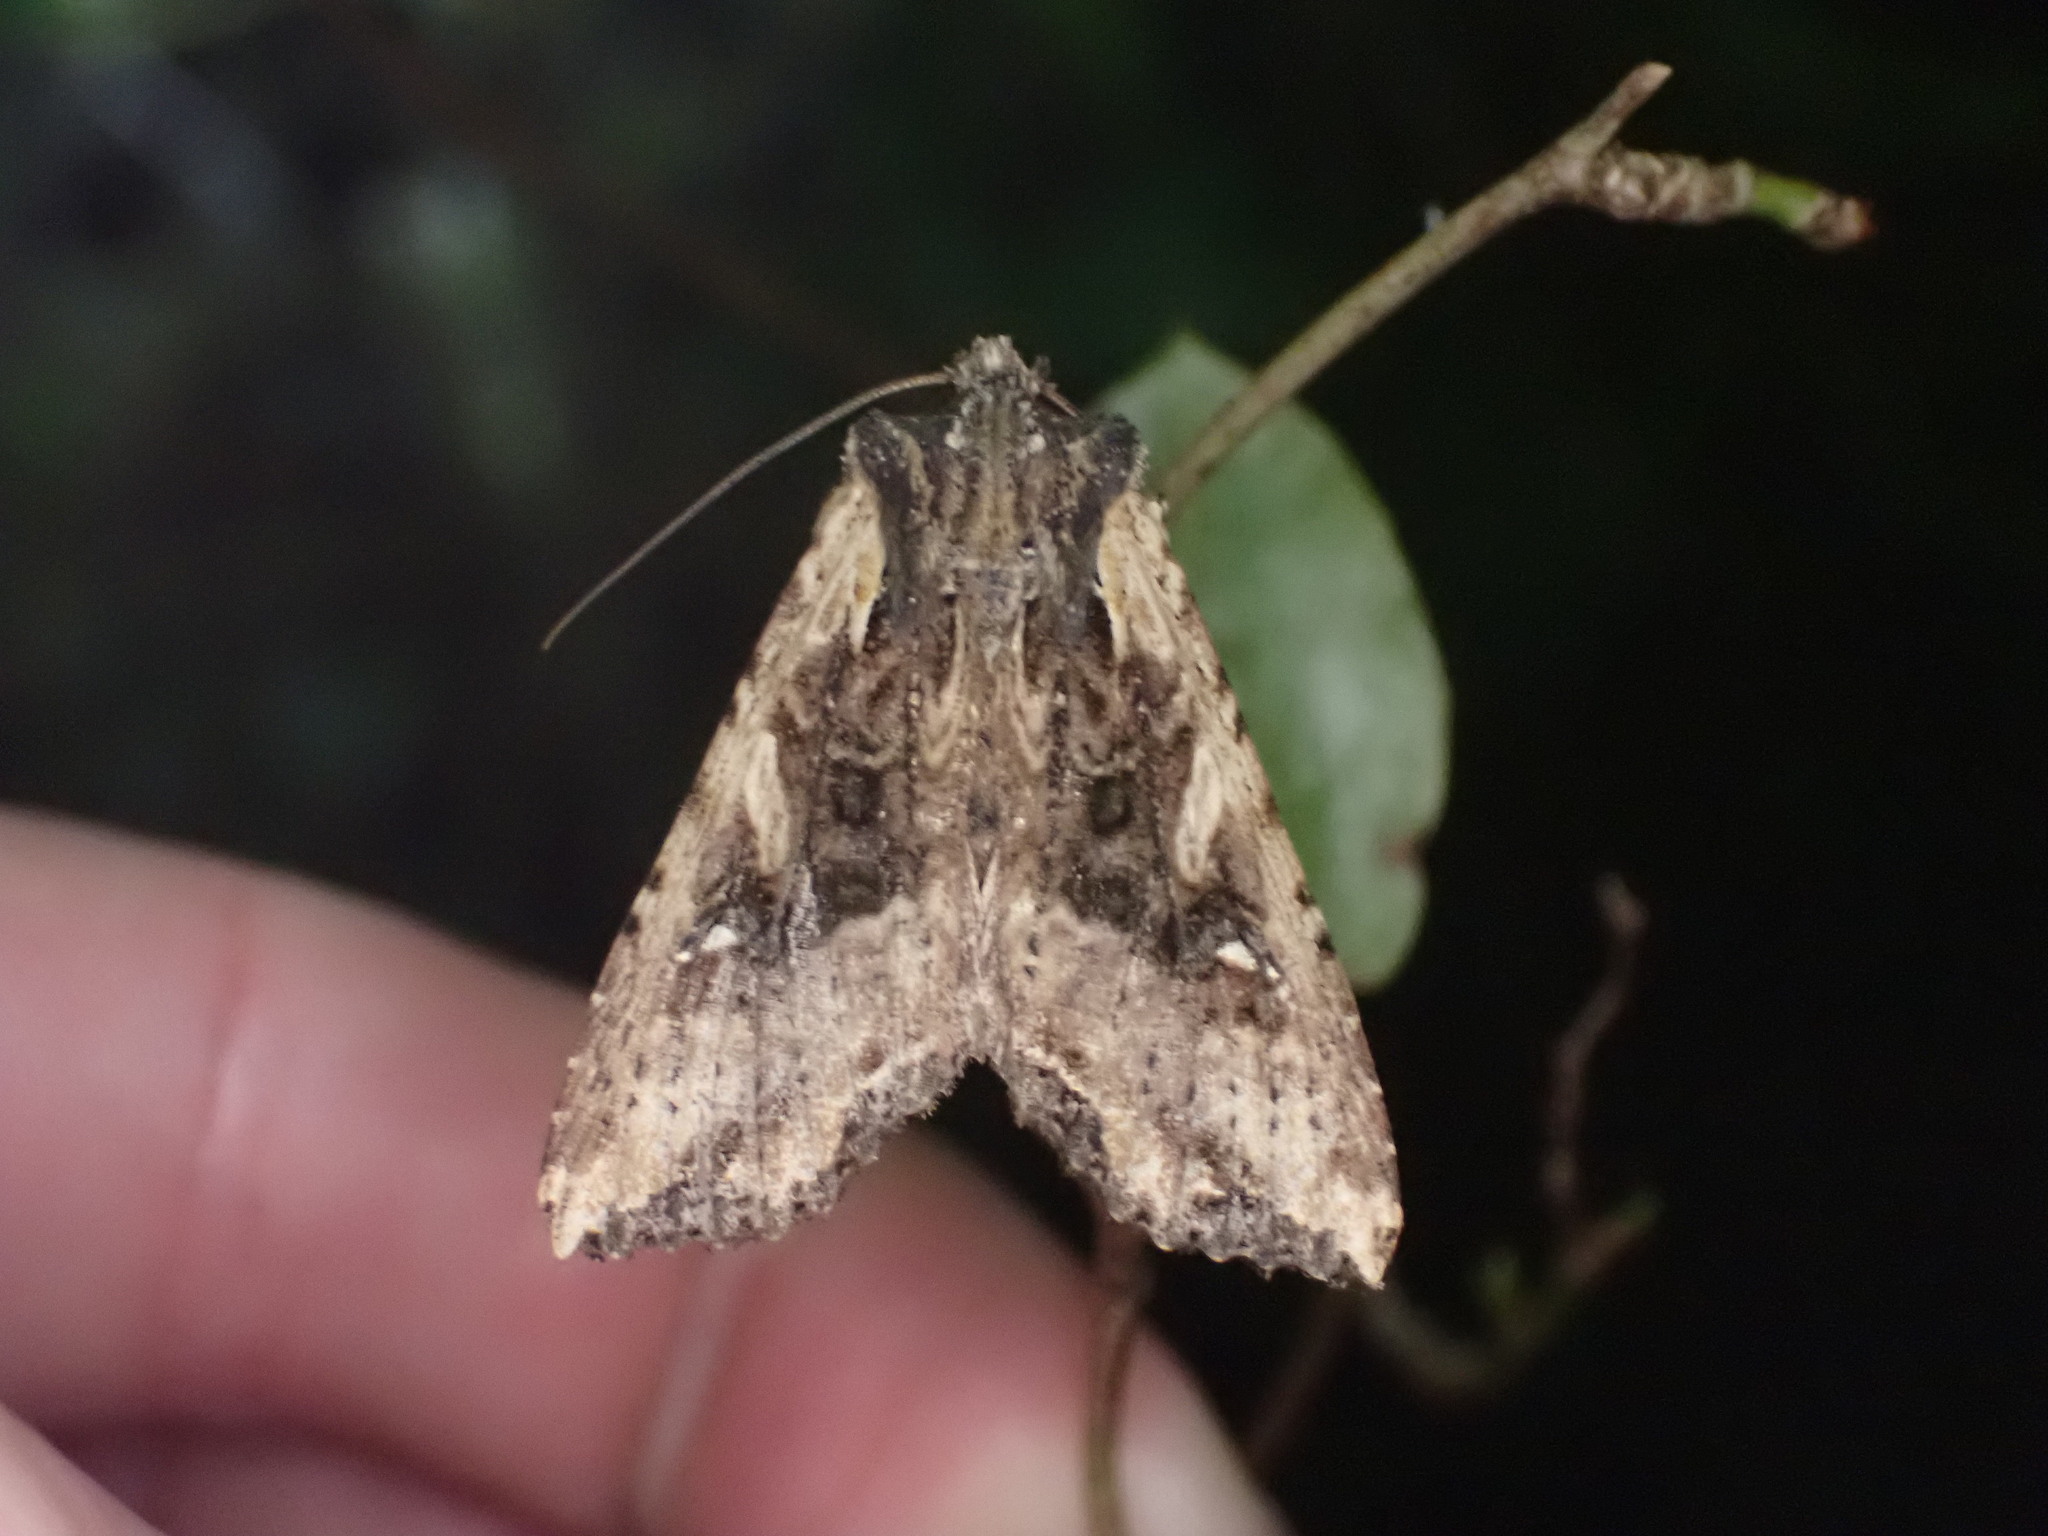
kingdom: Animalia
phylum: Arthropoda
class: Insecta
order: Lepidoptera
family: Noctuidae
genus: Meterana
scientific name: Meterana stipata
